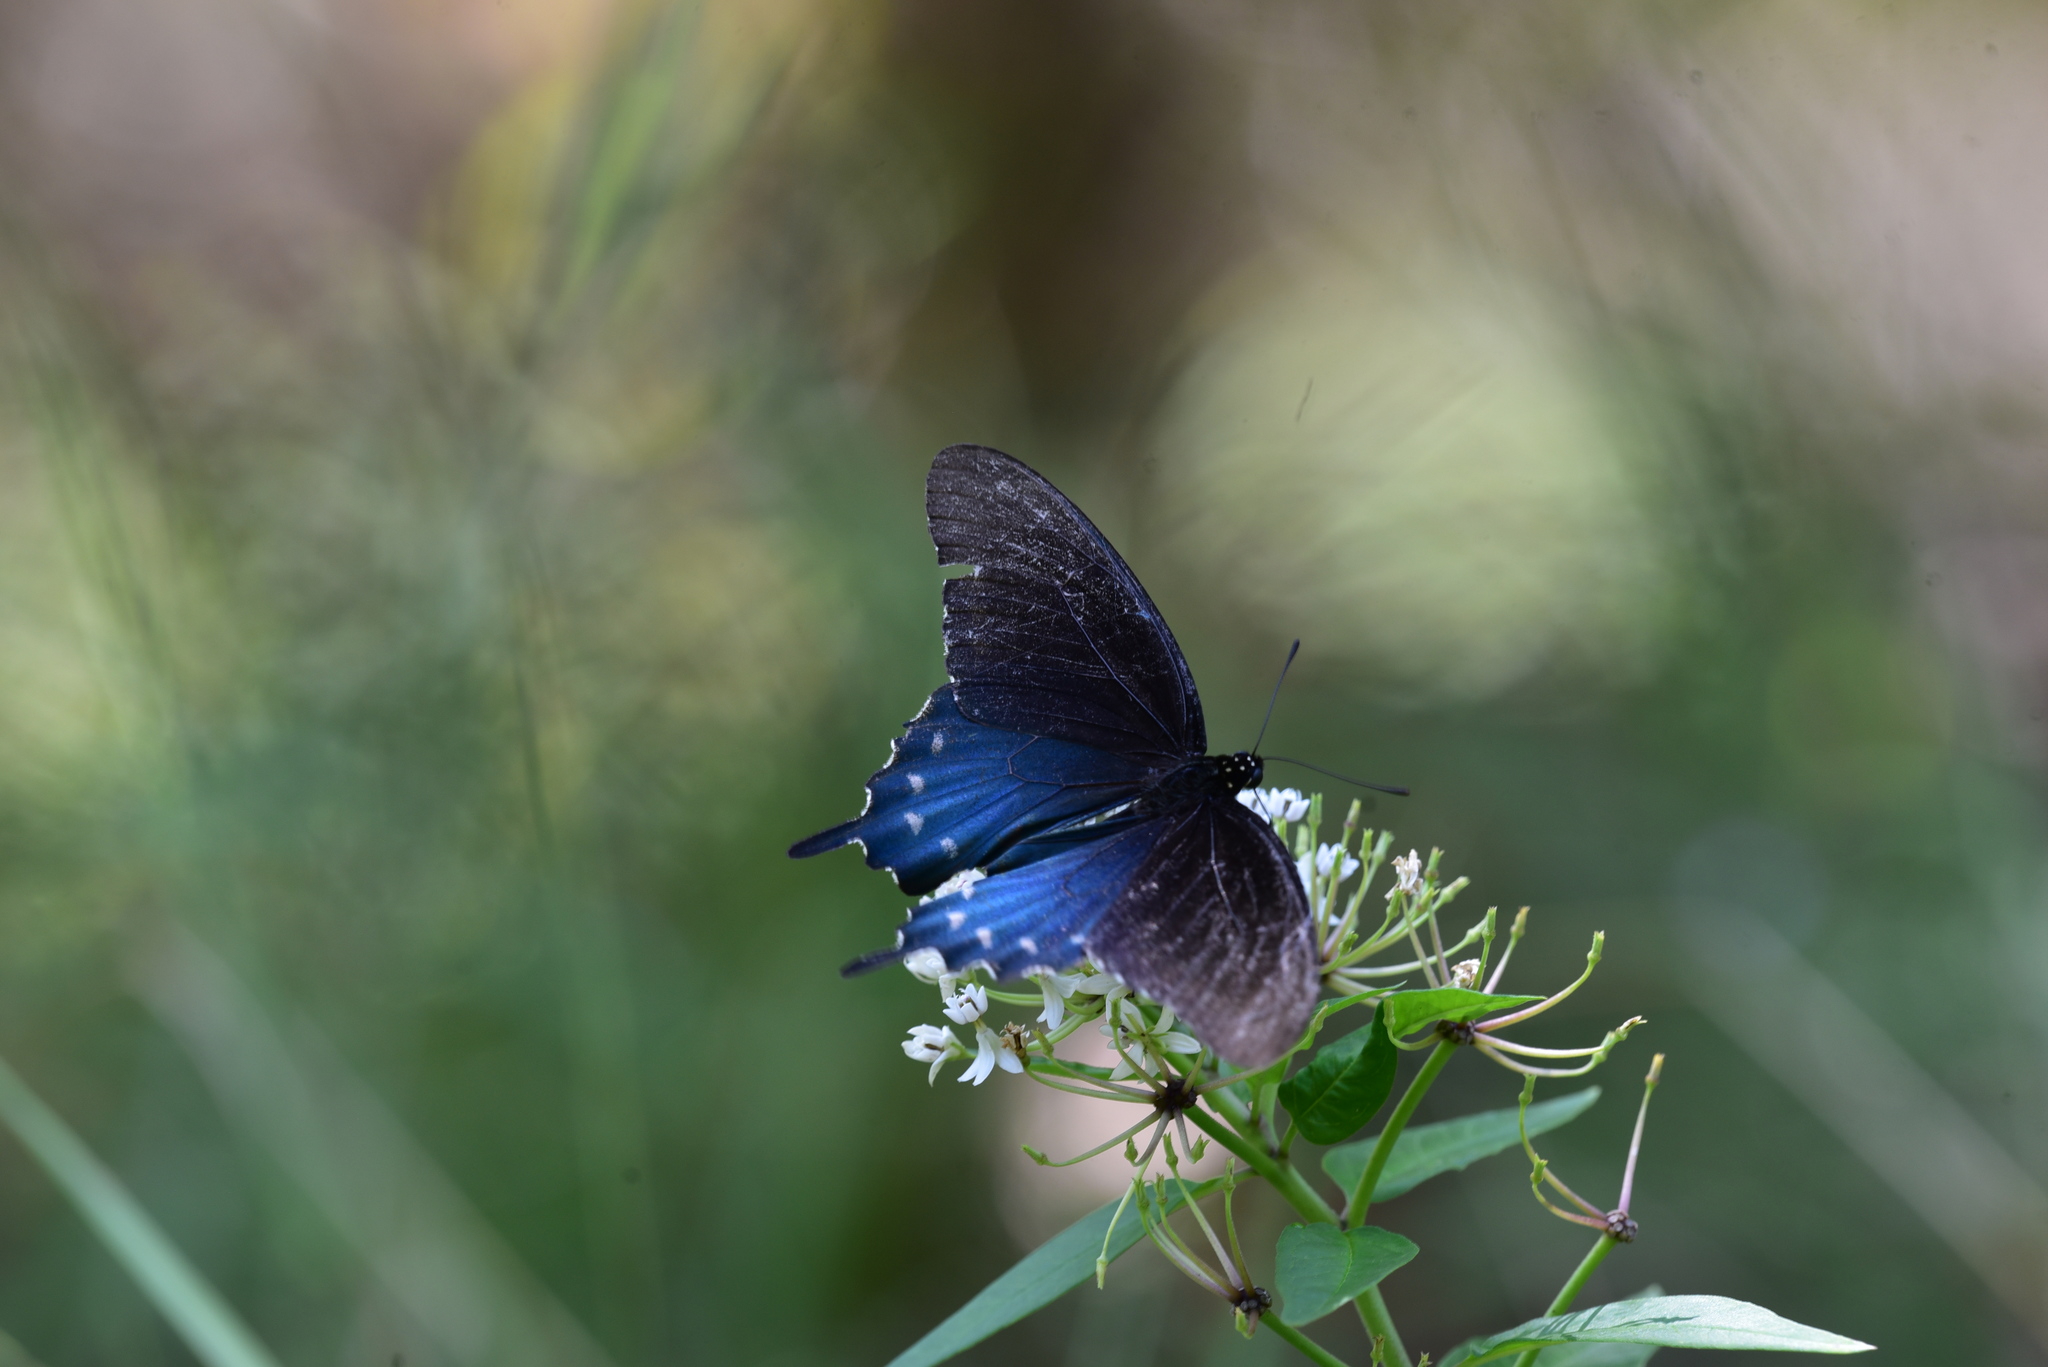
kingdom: Animalia
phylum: Arthropoda
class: Insecta
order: Lepidoptera
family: Papilionidae
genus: Battus
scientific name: Battus philenor
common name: Pipevine swallowtail
